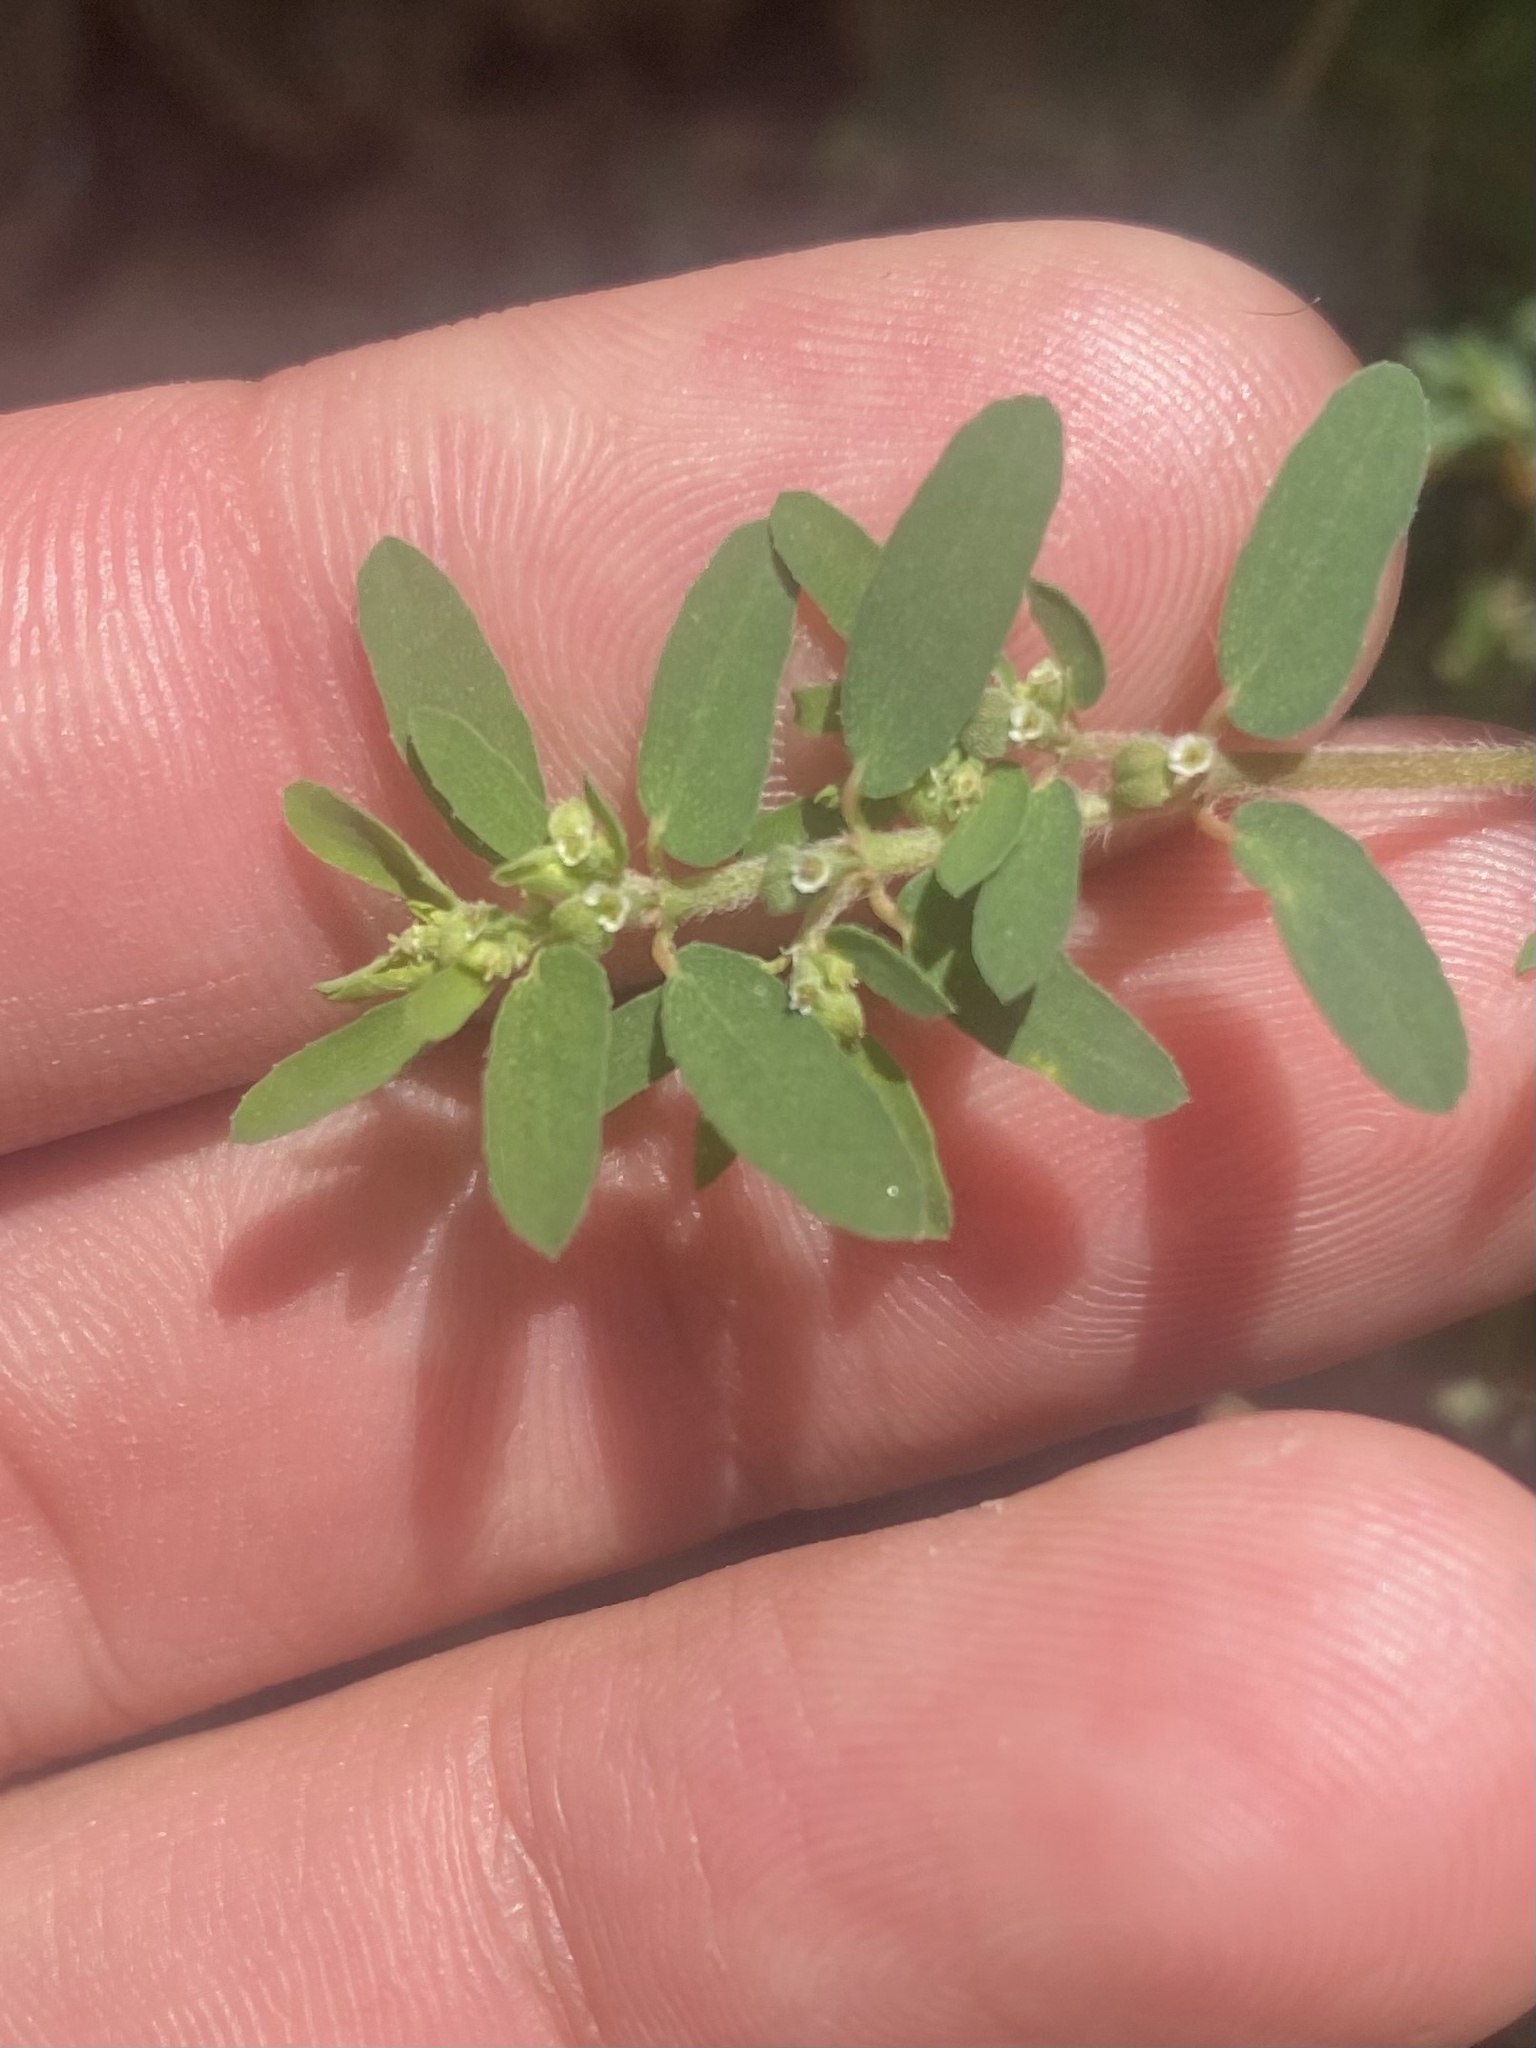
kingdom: Plantae
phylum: Tracheophyta
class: Magnoliopsida
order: Malpighiales
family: Euphorbiaceae
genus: Euphorbia
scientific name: Euphorbia maculata
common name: Spotted spurge
